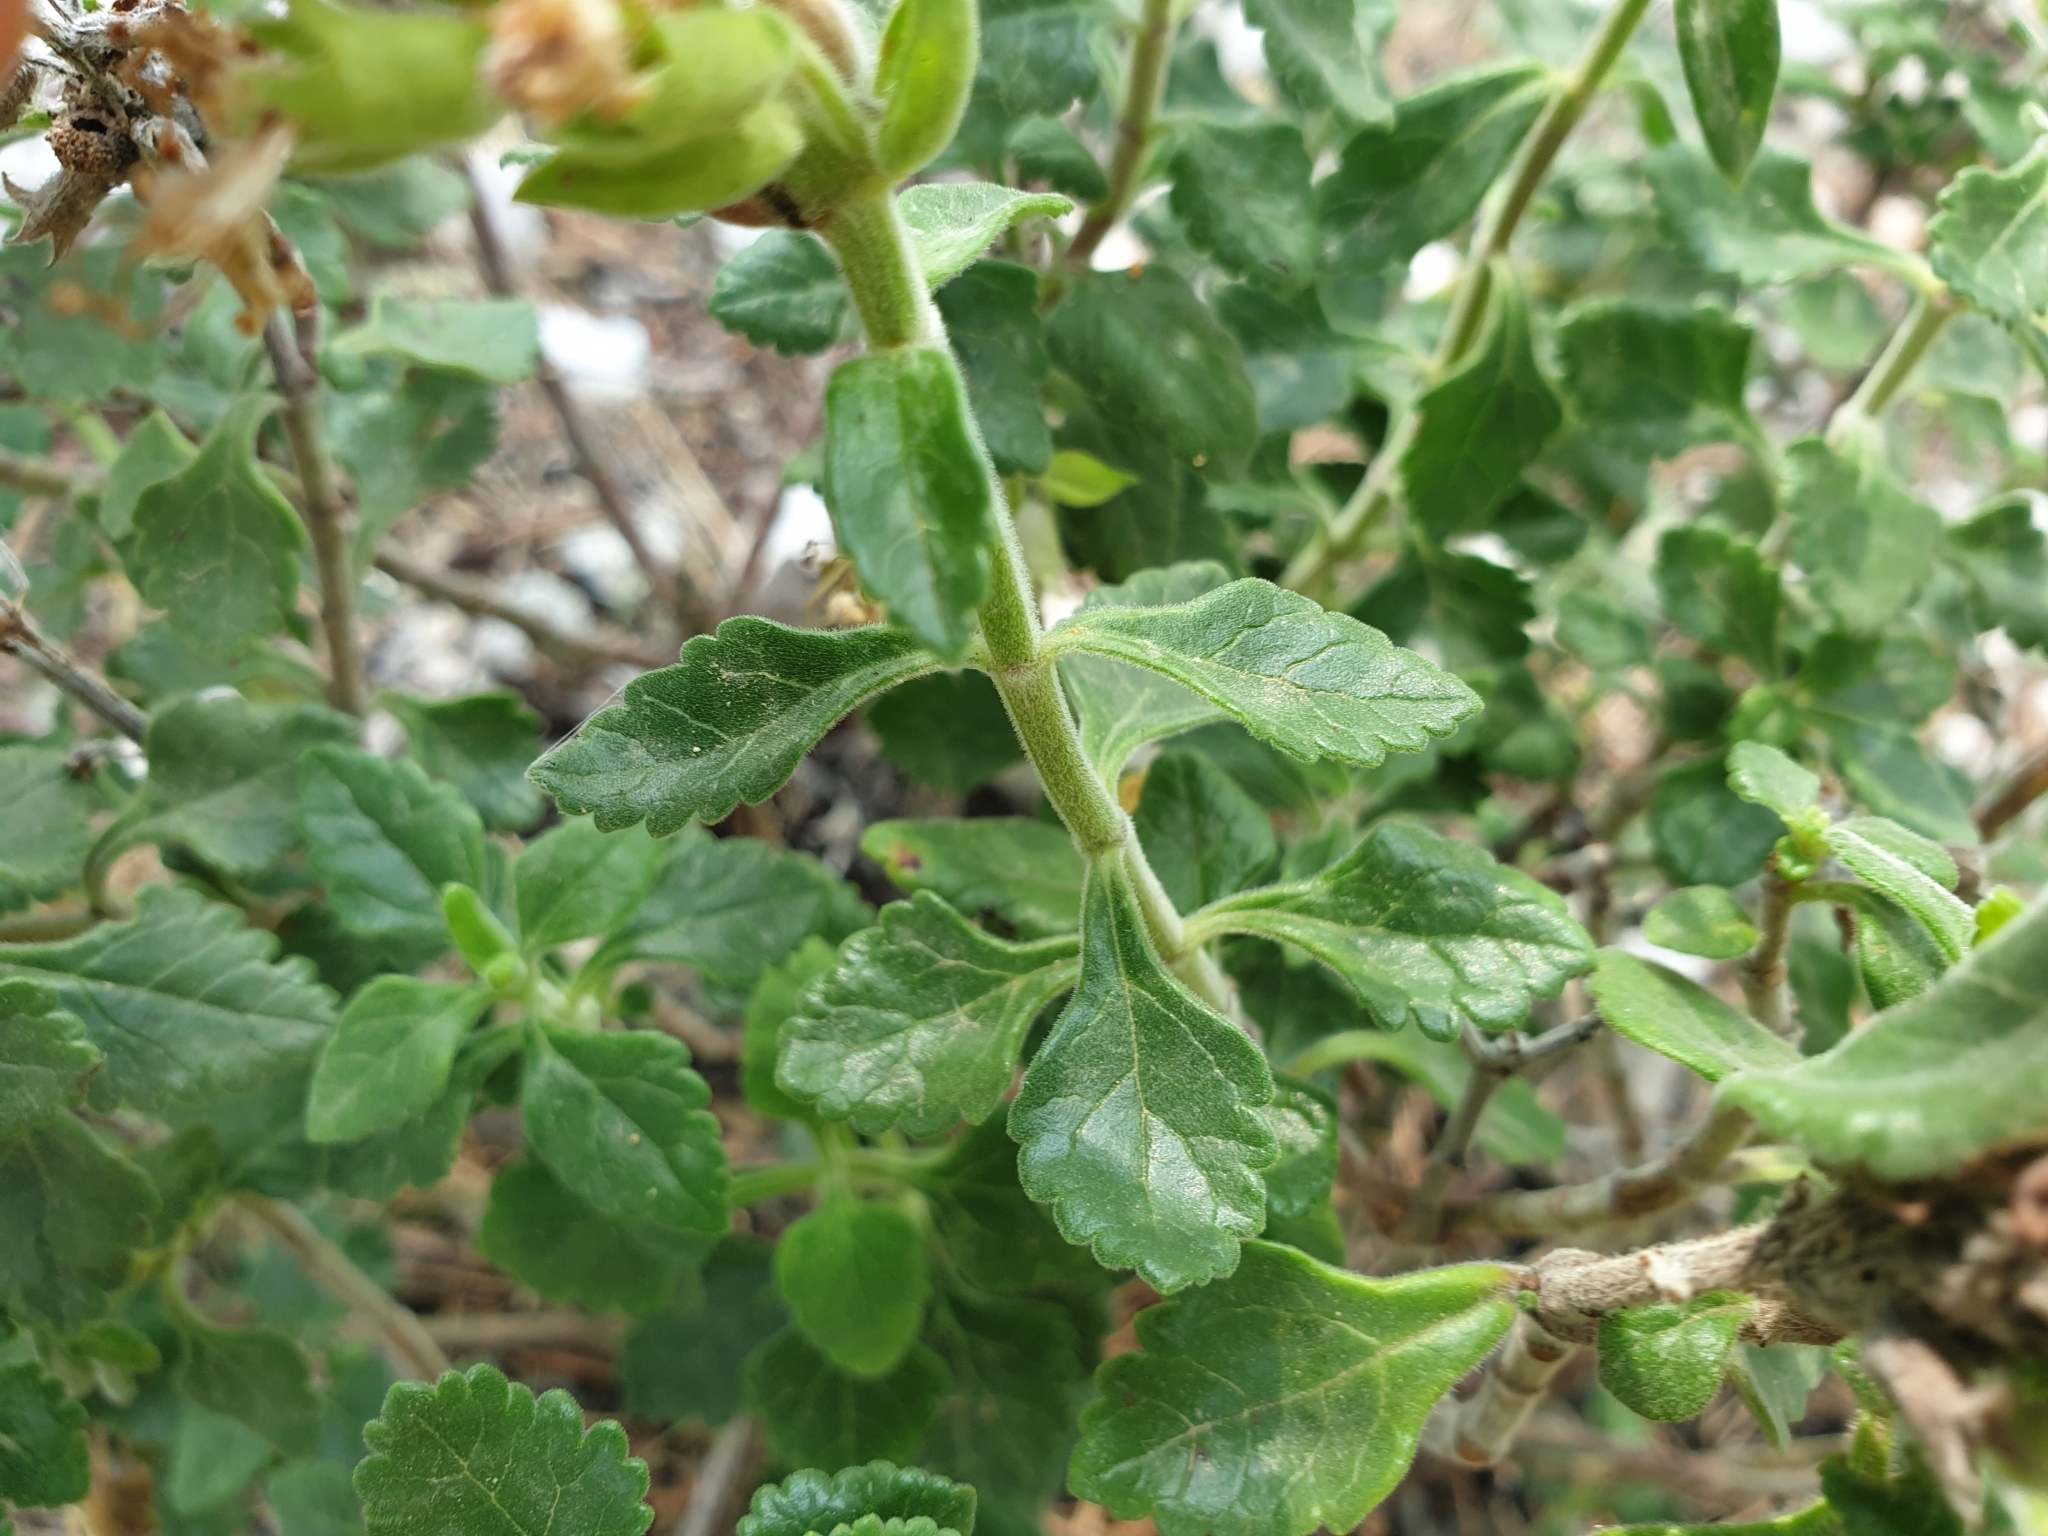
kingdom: Plantae
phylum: Tracheophyta
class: Magnoliopsida
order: Lamiales
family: Lamiaceae
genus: Teucrium
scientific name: Teucrium flavum
